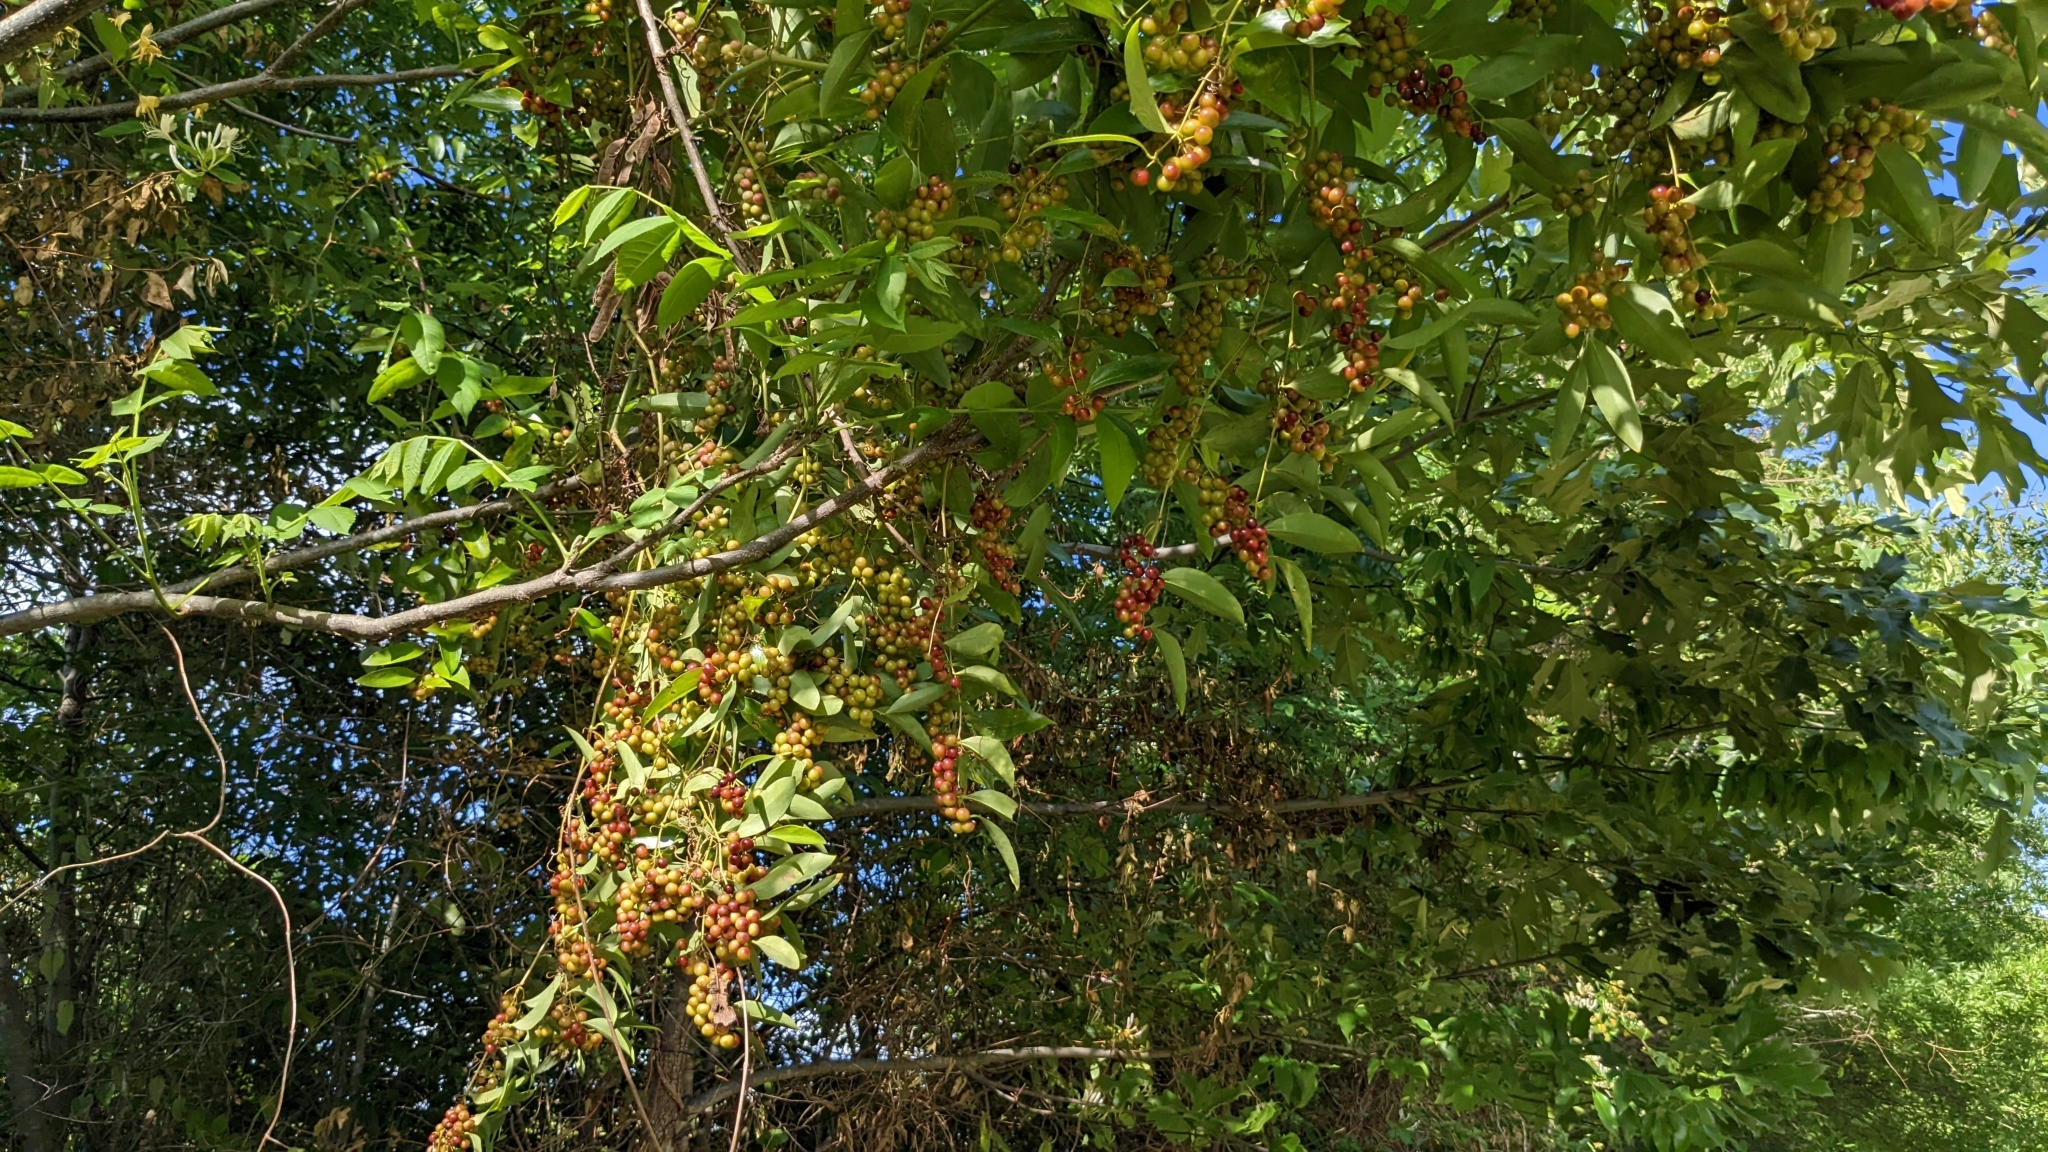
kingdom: Plantae
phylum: Tracheophyta
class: Liliopsida
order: Liliales
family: Smilacaceae
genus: Smilax
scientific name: Smilax maritima
